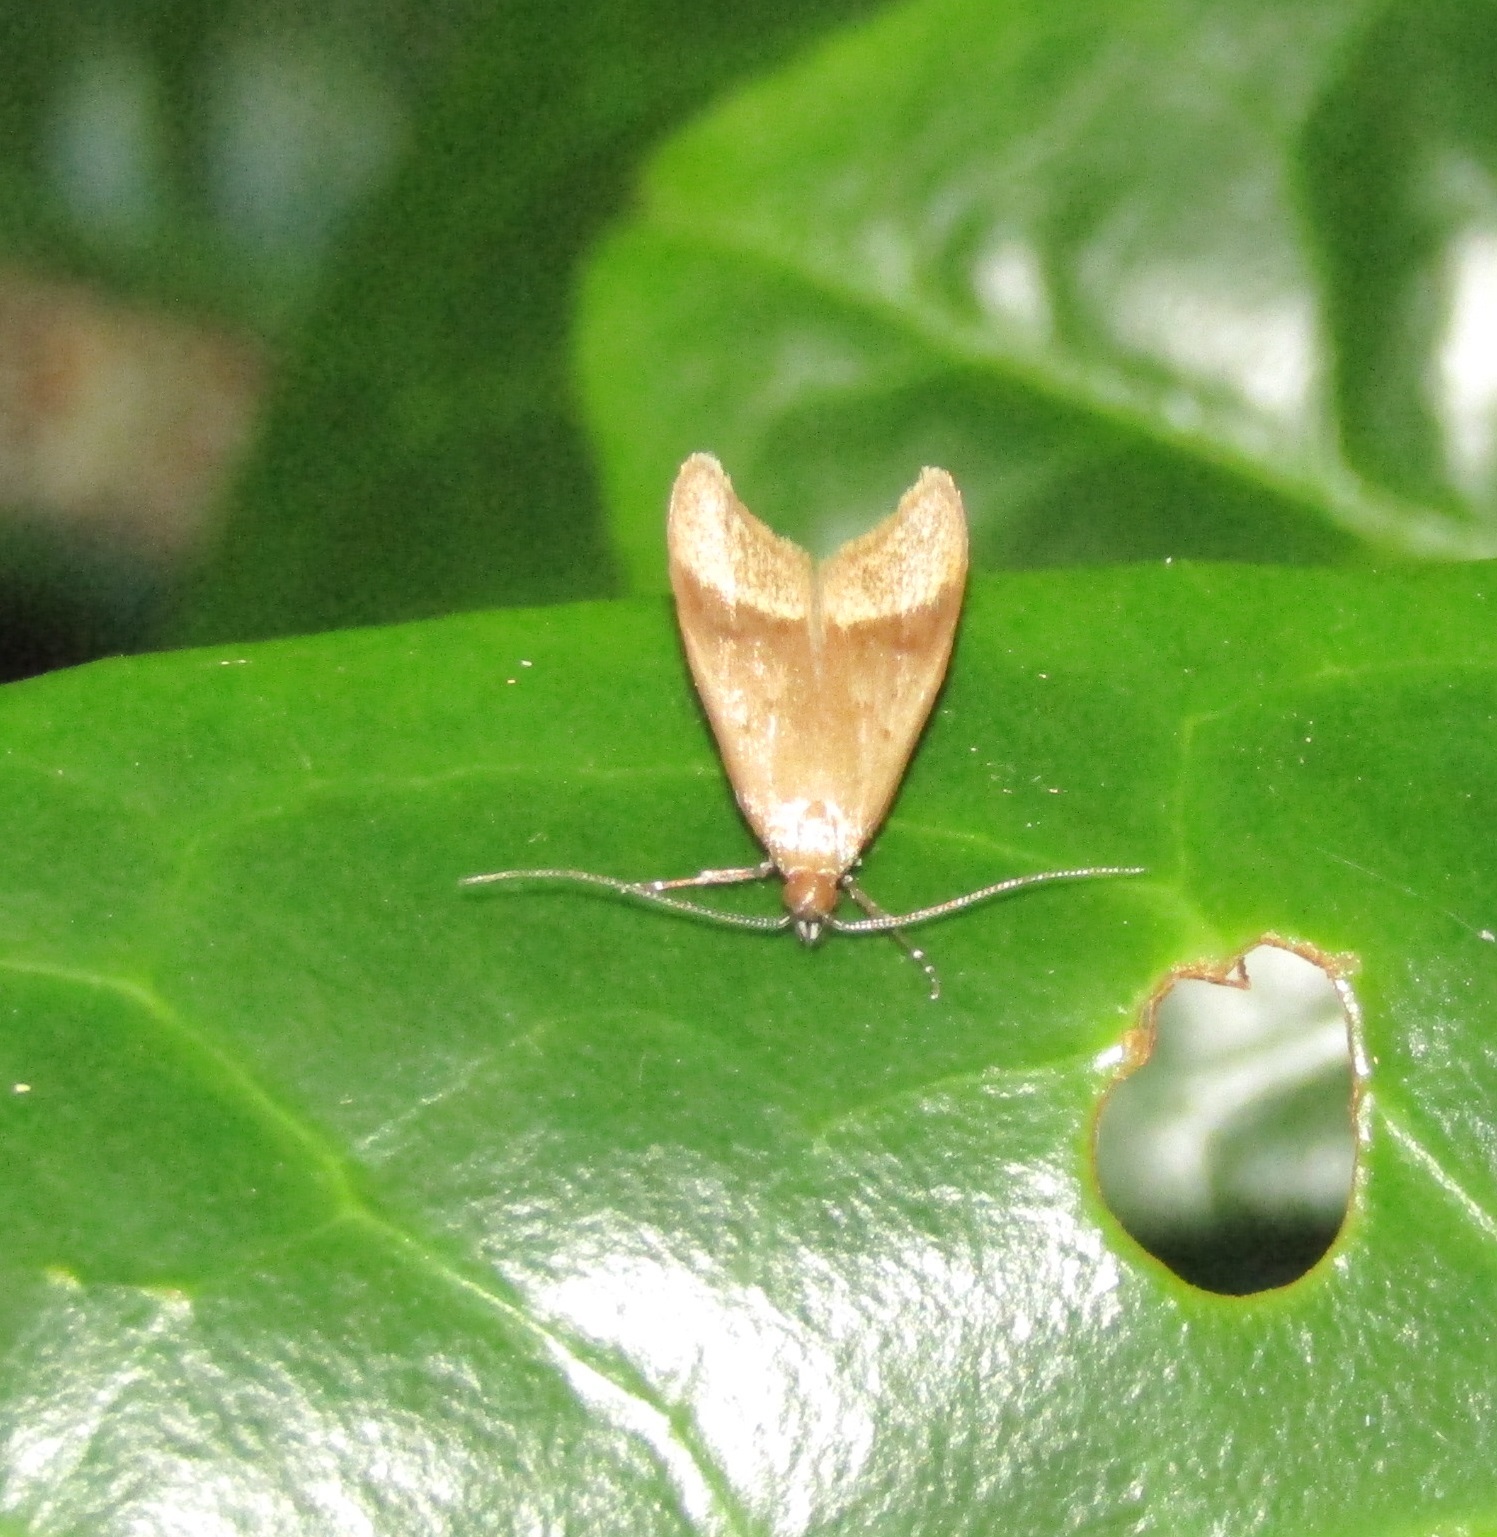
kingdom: Animalia
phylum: Arthropoda
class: Insecta
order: Lepidoptera
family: Oecophoridae
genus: Gymnobathra
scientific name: Gymnobathra hyetodes
